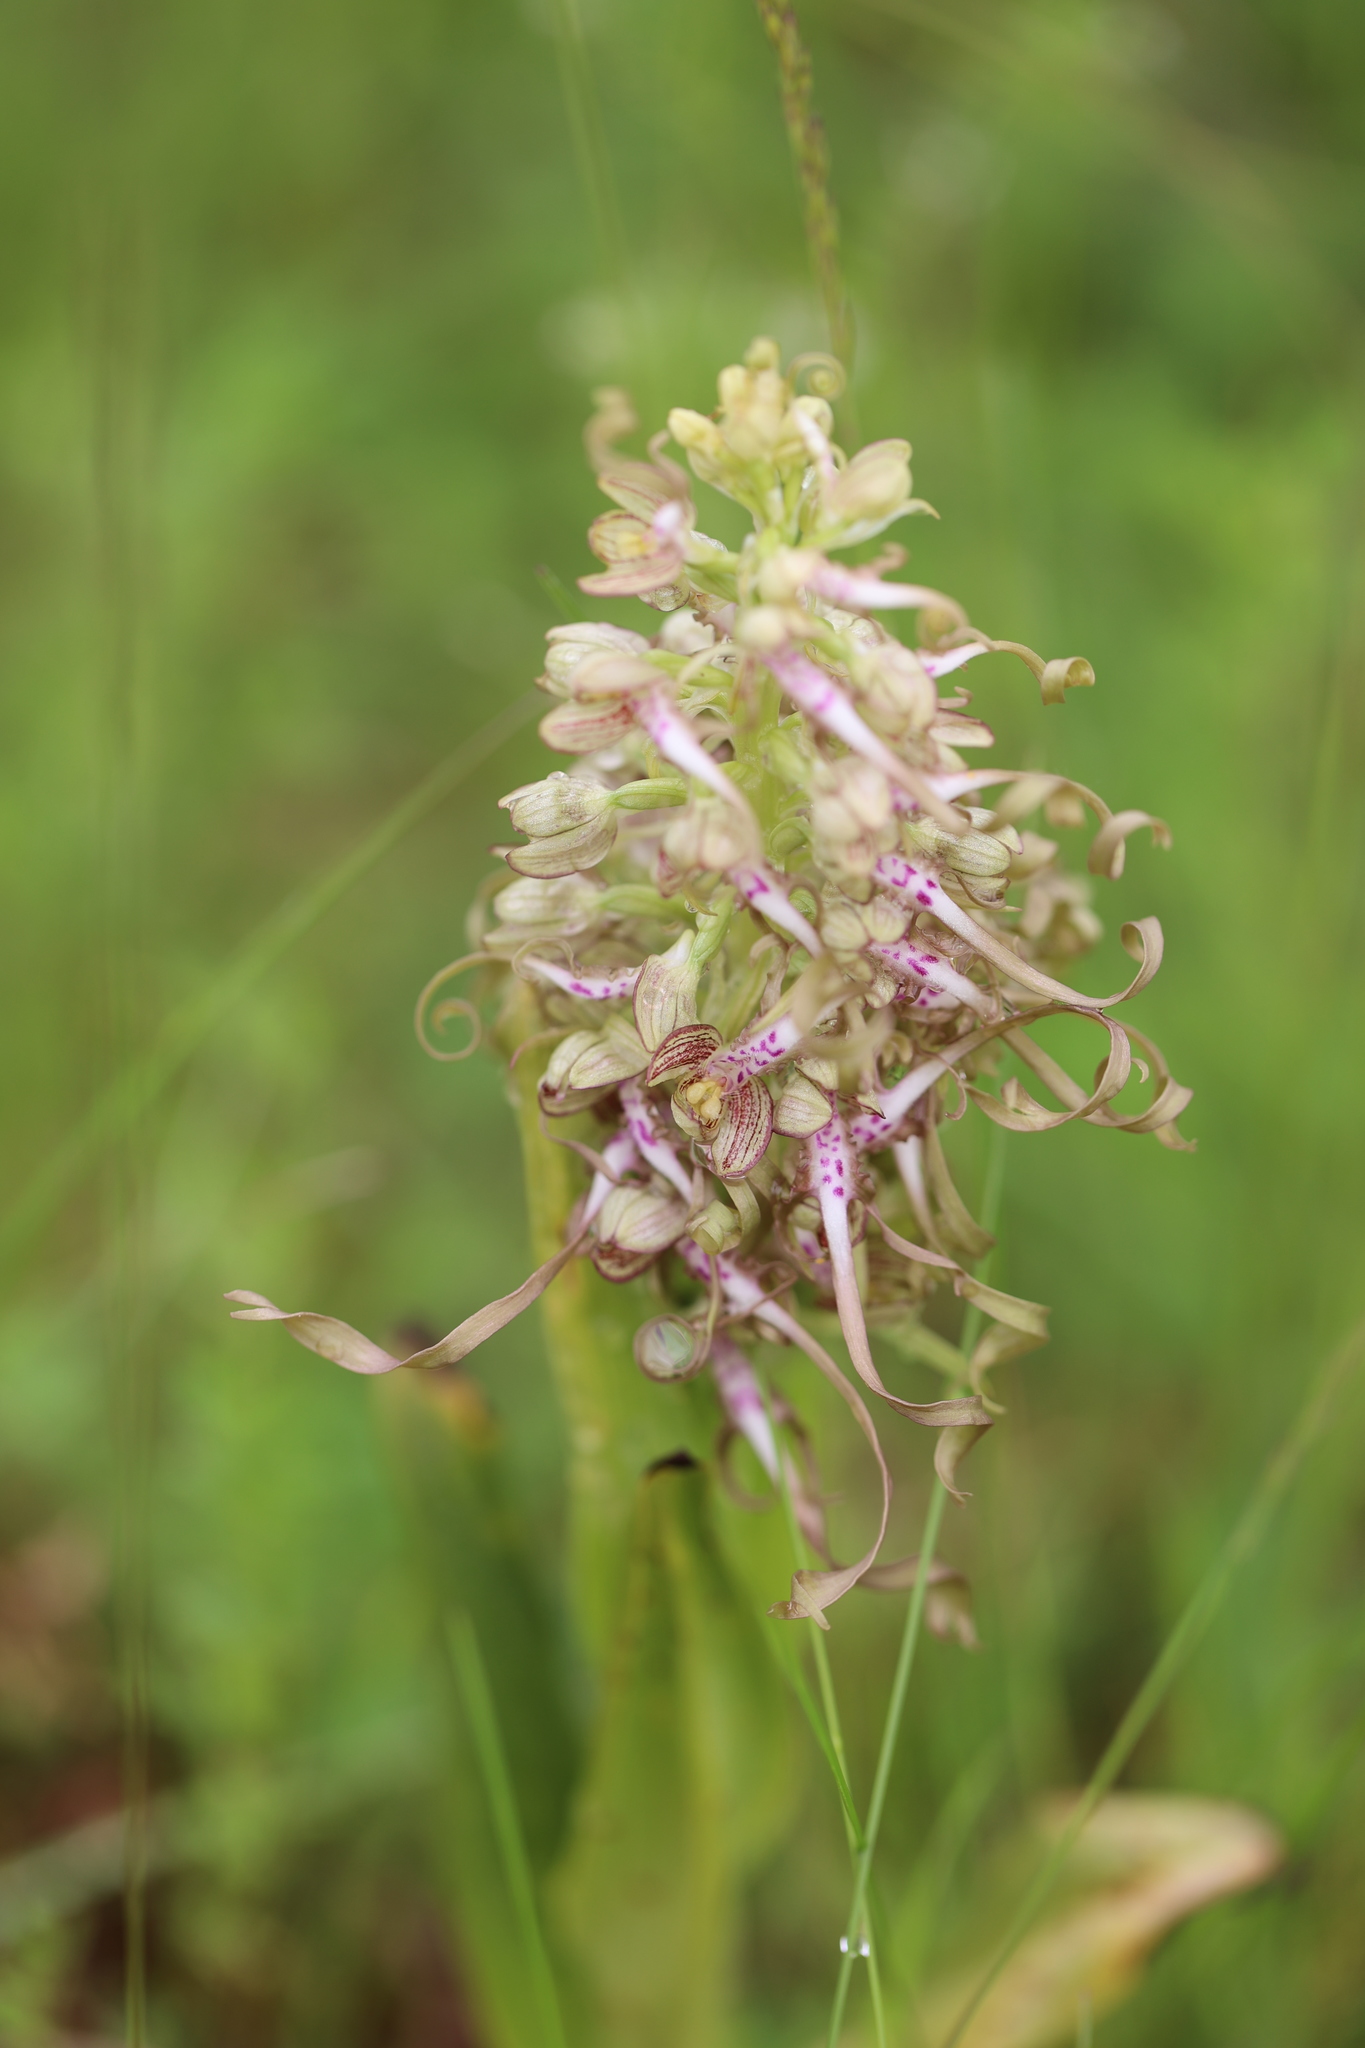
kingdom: Plantae
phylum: Tracheophyta
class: Liliopsida
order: Asparagales
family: Orchidaceae
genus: Himantoglossum
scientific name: Himantoglossum hircinum
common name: Lizard orchid
